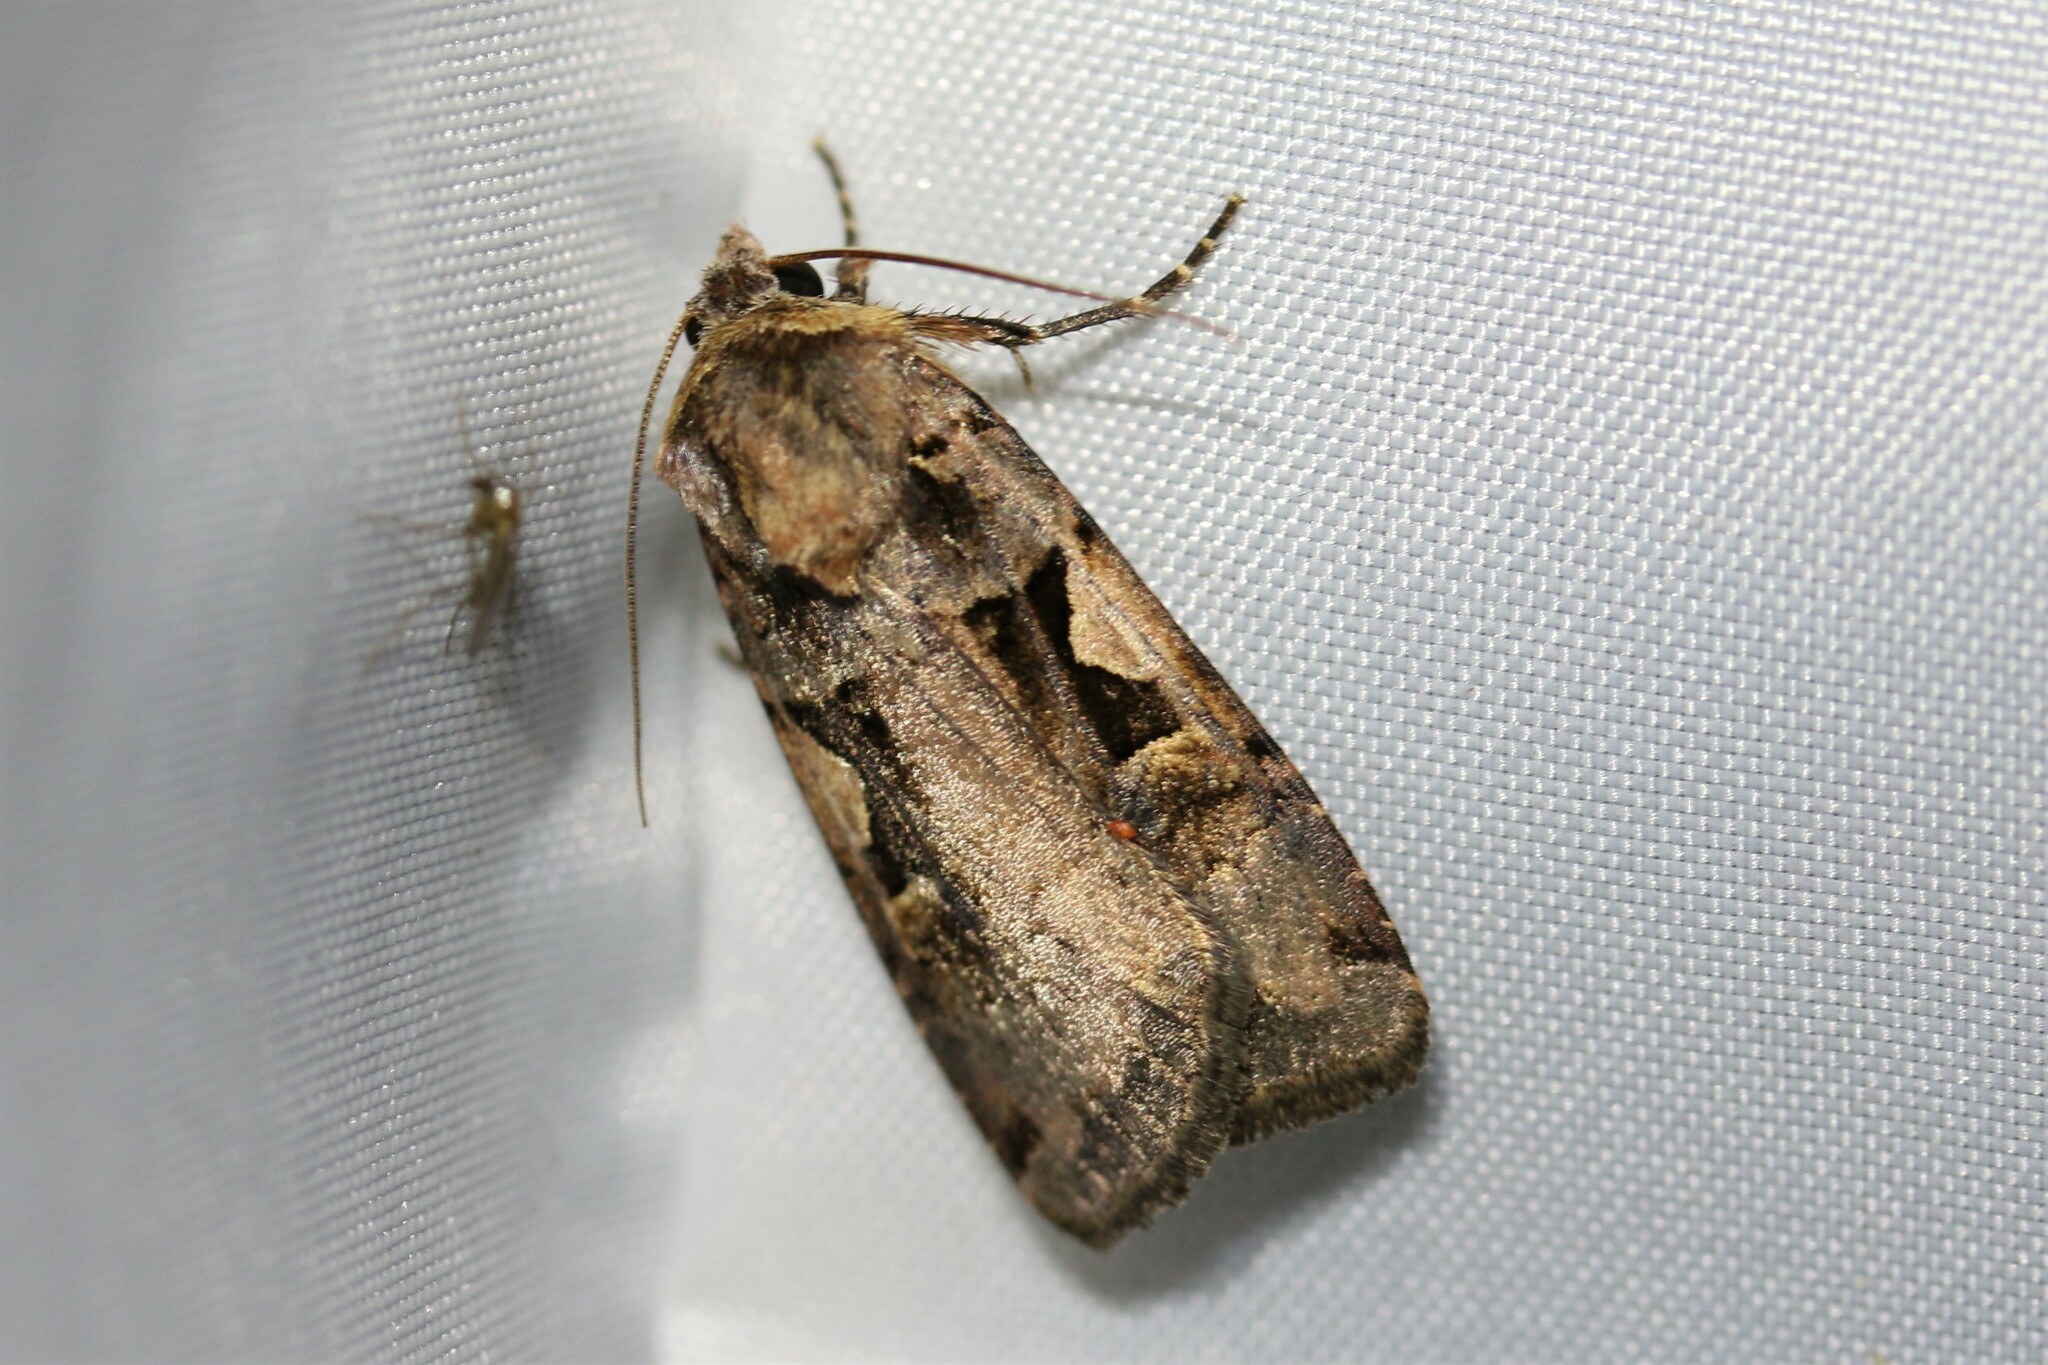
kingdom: Animalia
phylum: Arthropoda
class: Insecta
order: Lepidoptera
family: Noctuidae
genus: Xestia
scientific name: Xestia c-nigrum
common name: Setaceous hebrew character
